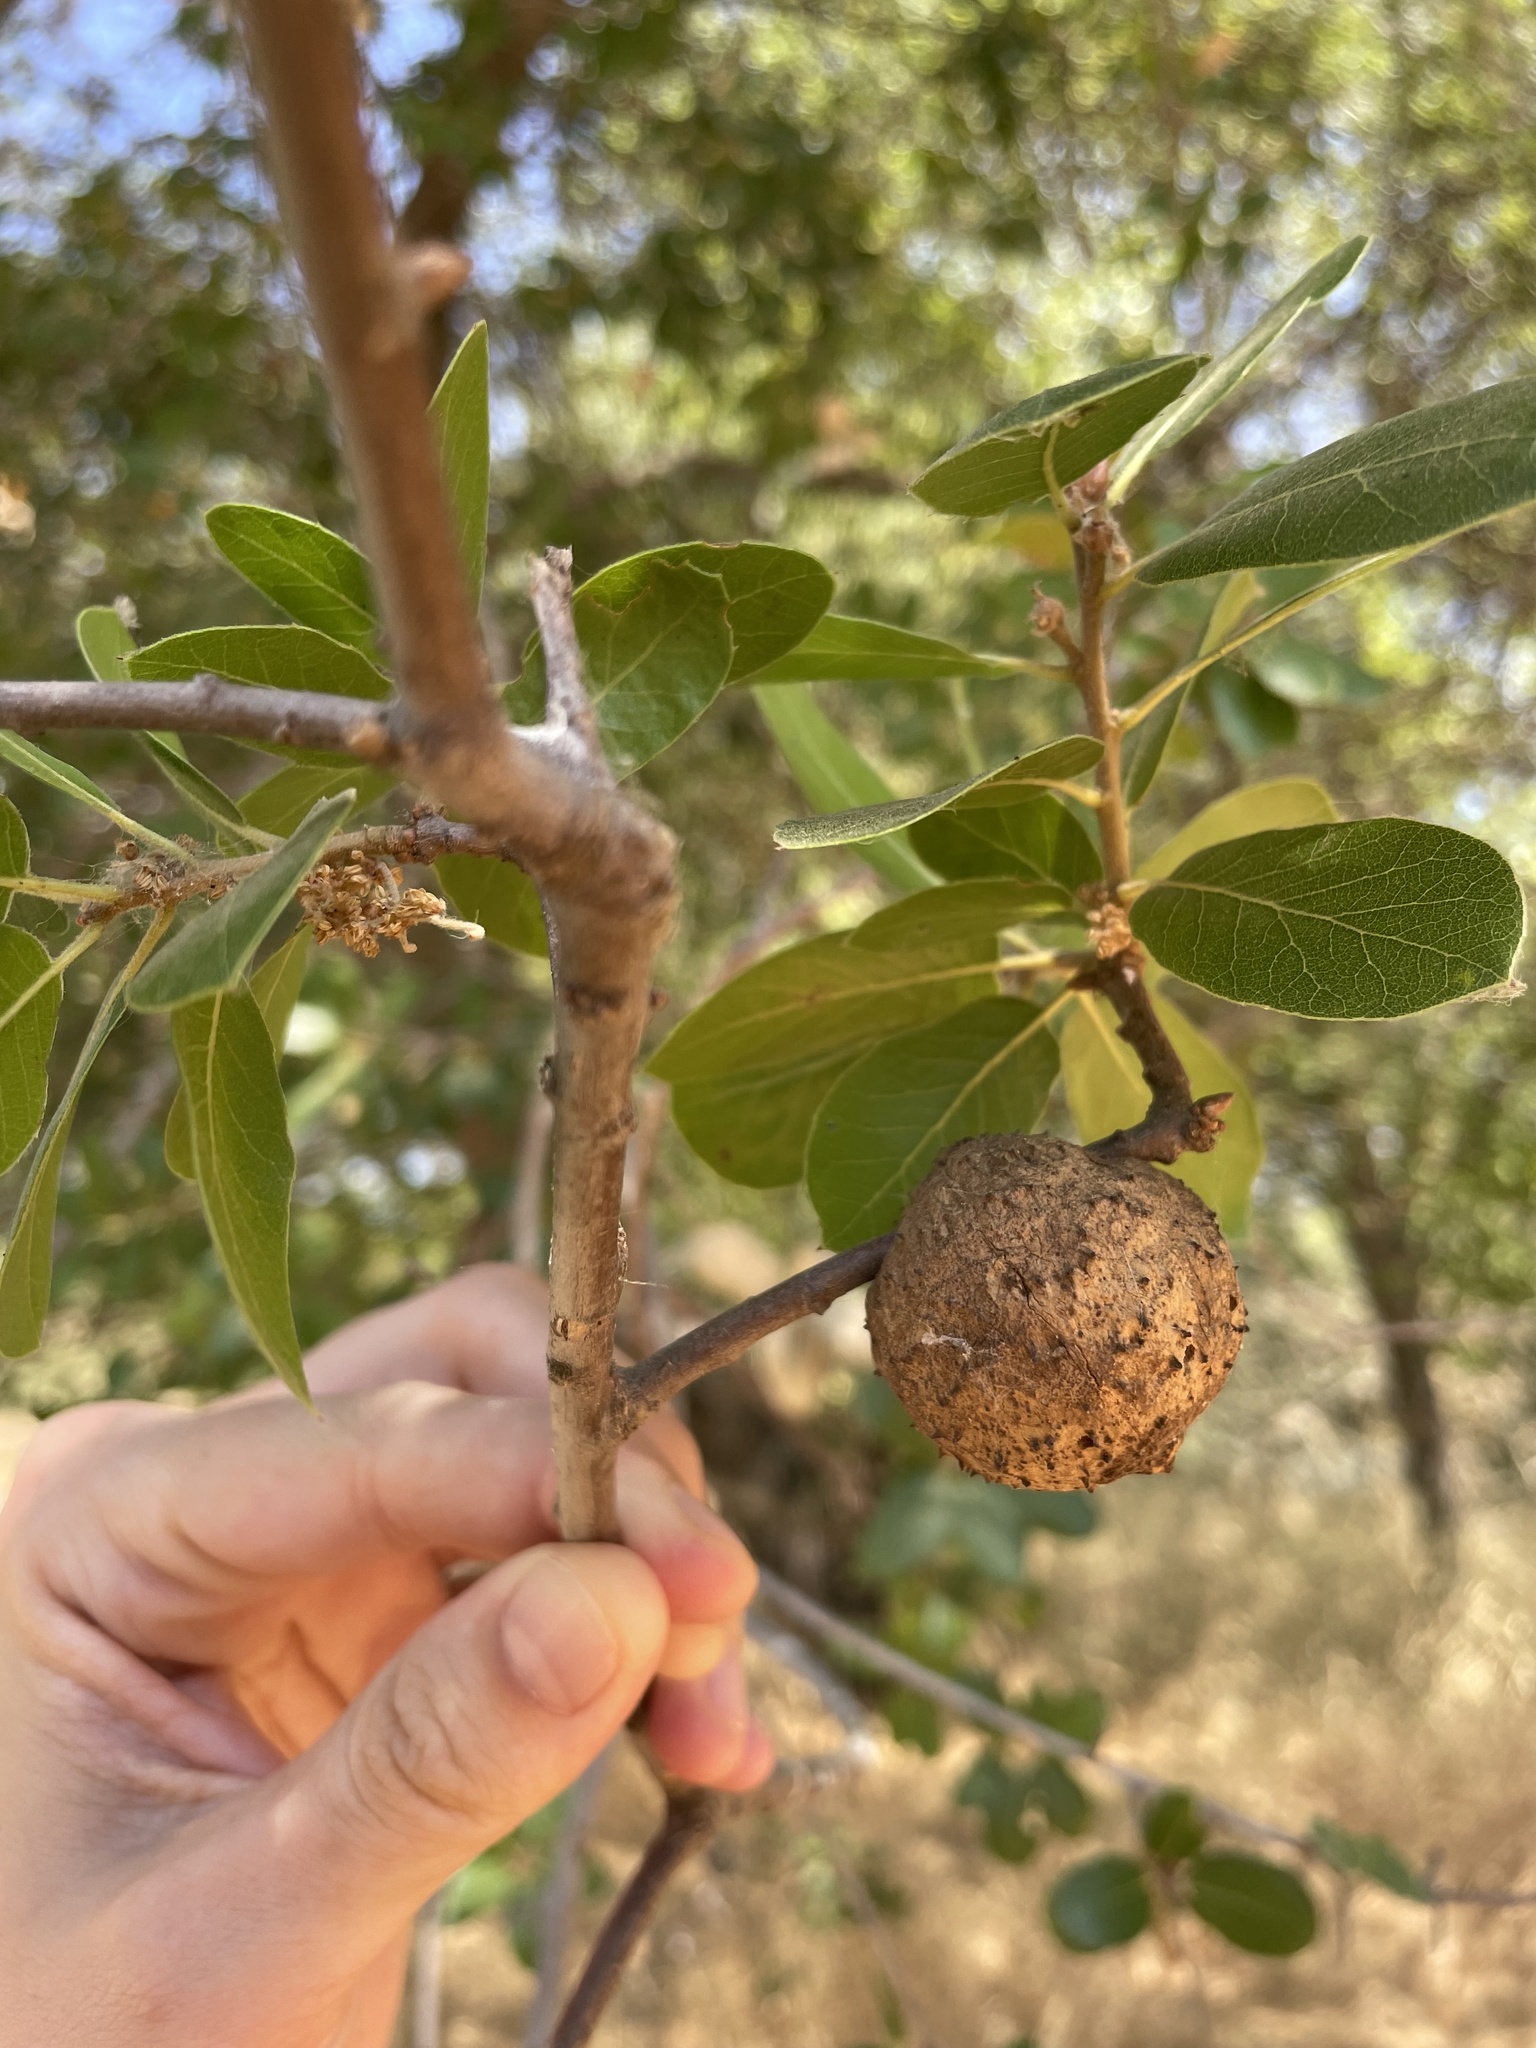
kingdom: Animalia
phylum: Arthropoda
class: Insecta
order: Hymenoptera
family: Cynipidae
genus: Amphibolips
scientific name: Amphibolips quercuspomiformis
